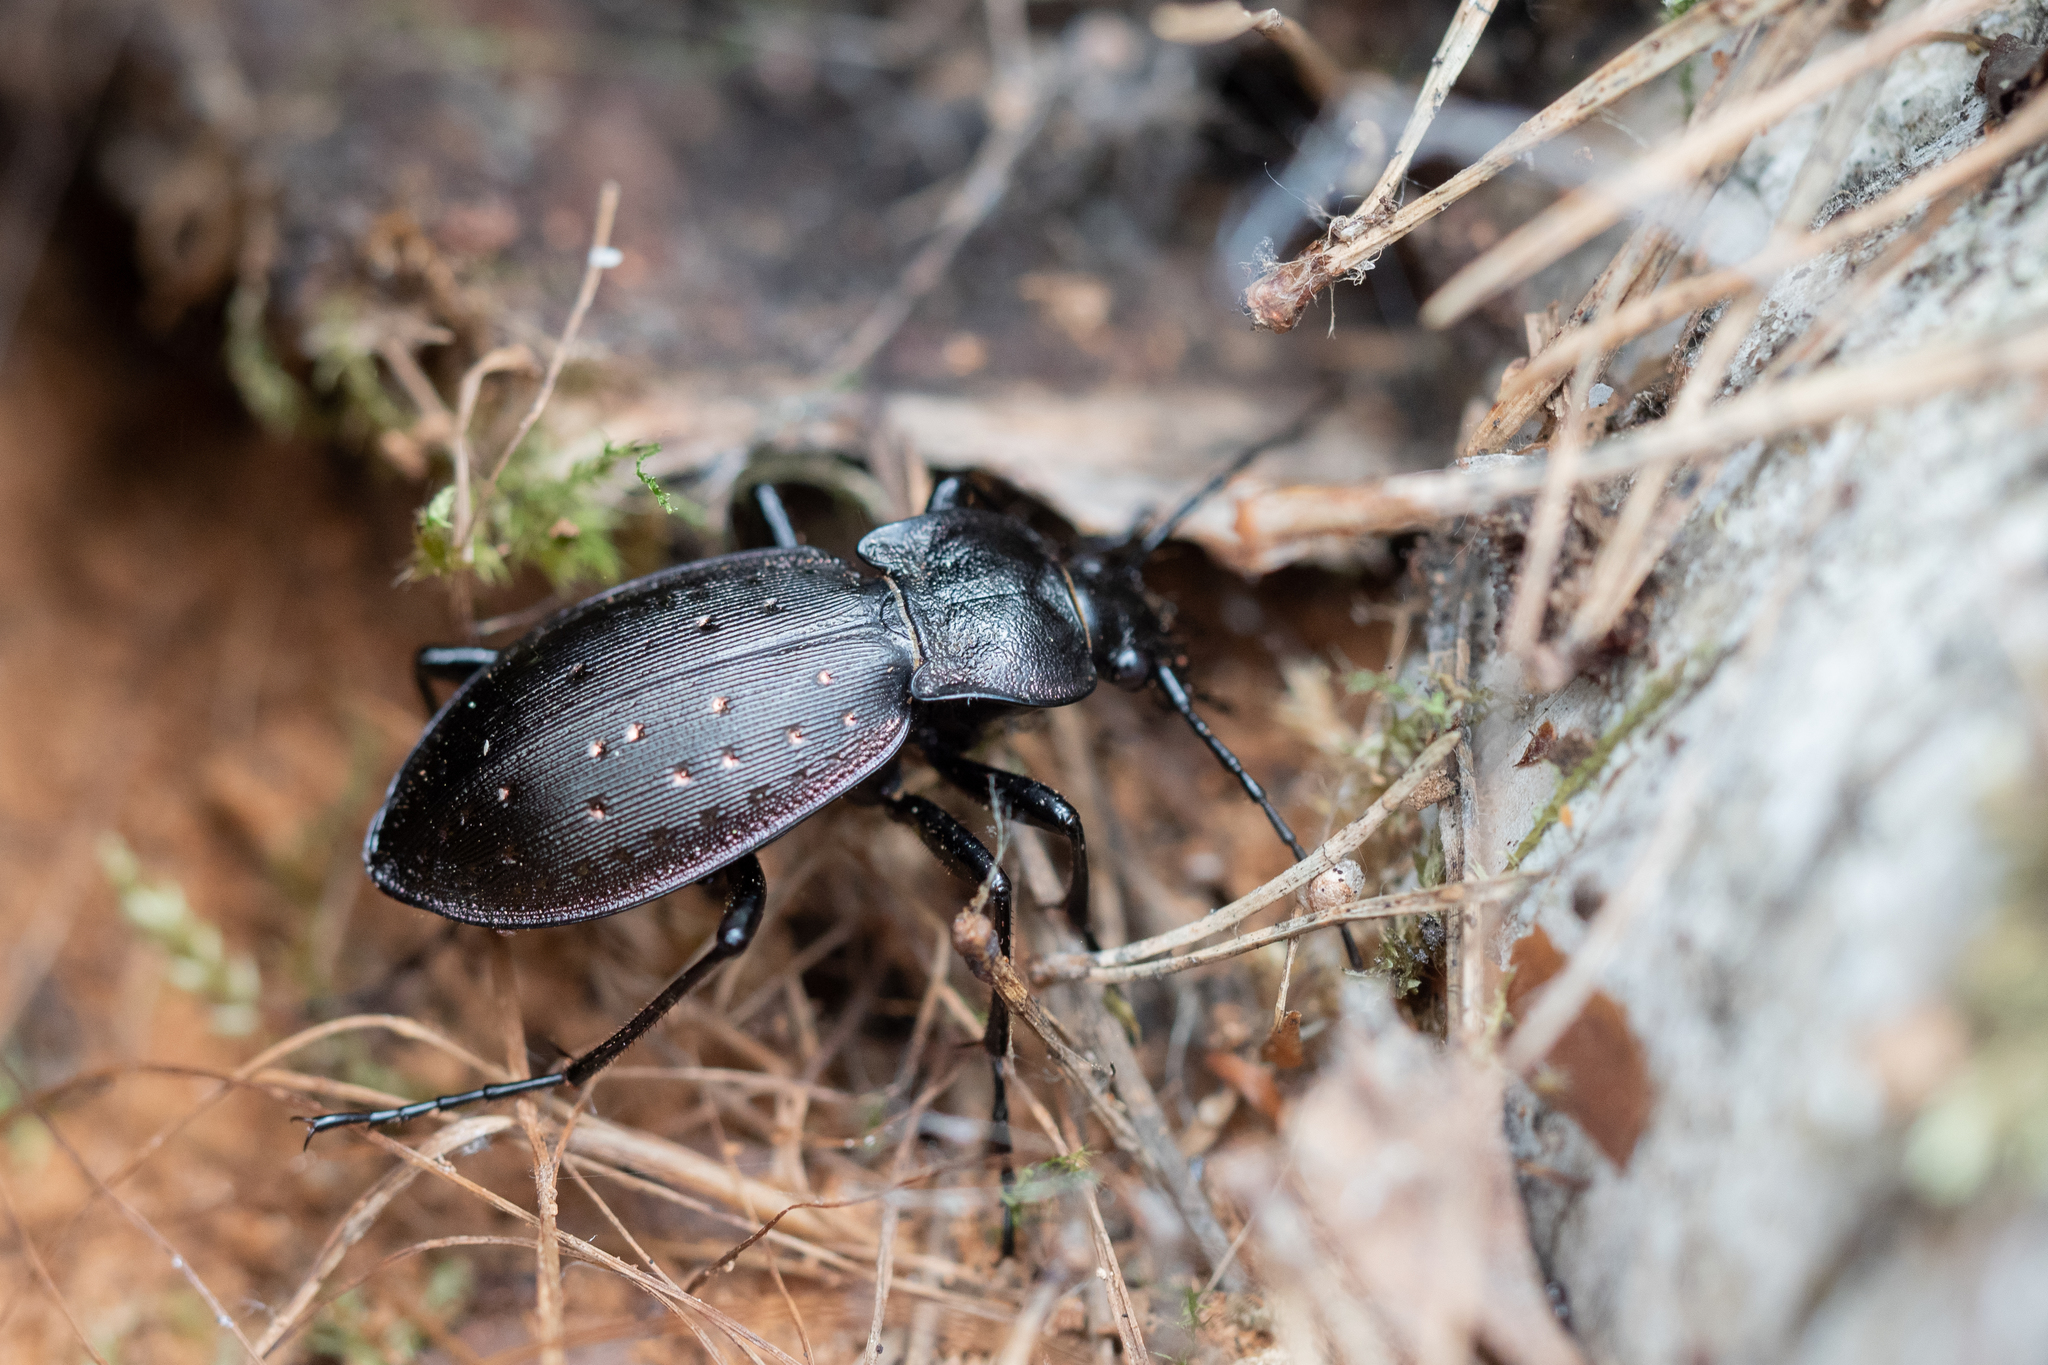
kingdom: Animalia
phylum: Arthropoda
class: Insecta
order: Coleoptera
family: Carabidae
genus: Carabus
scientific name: Carabus hortensis
